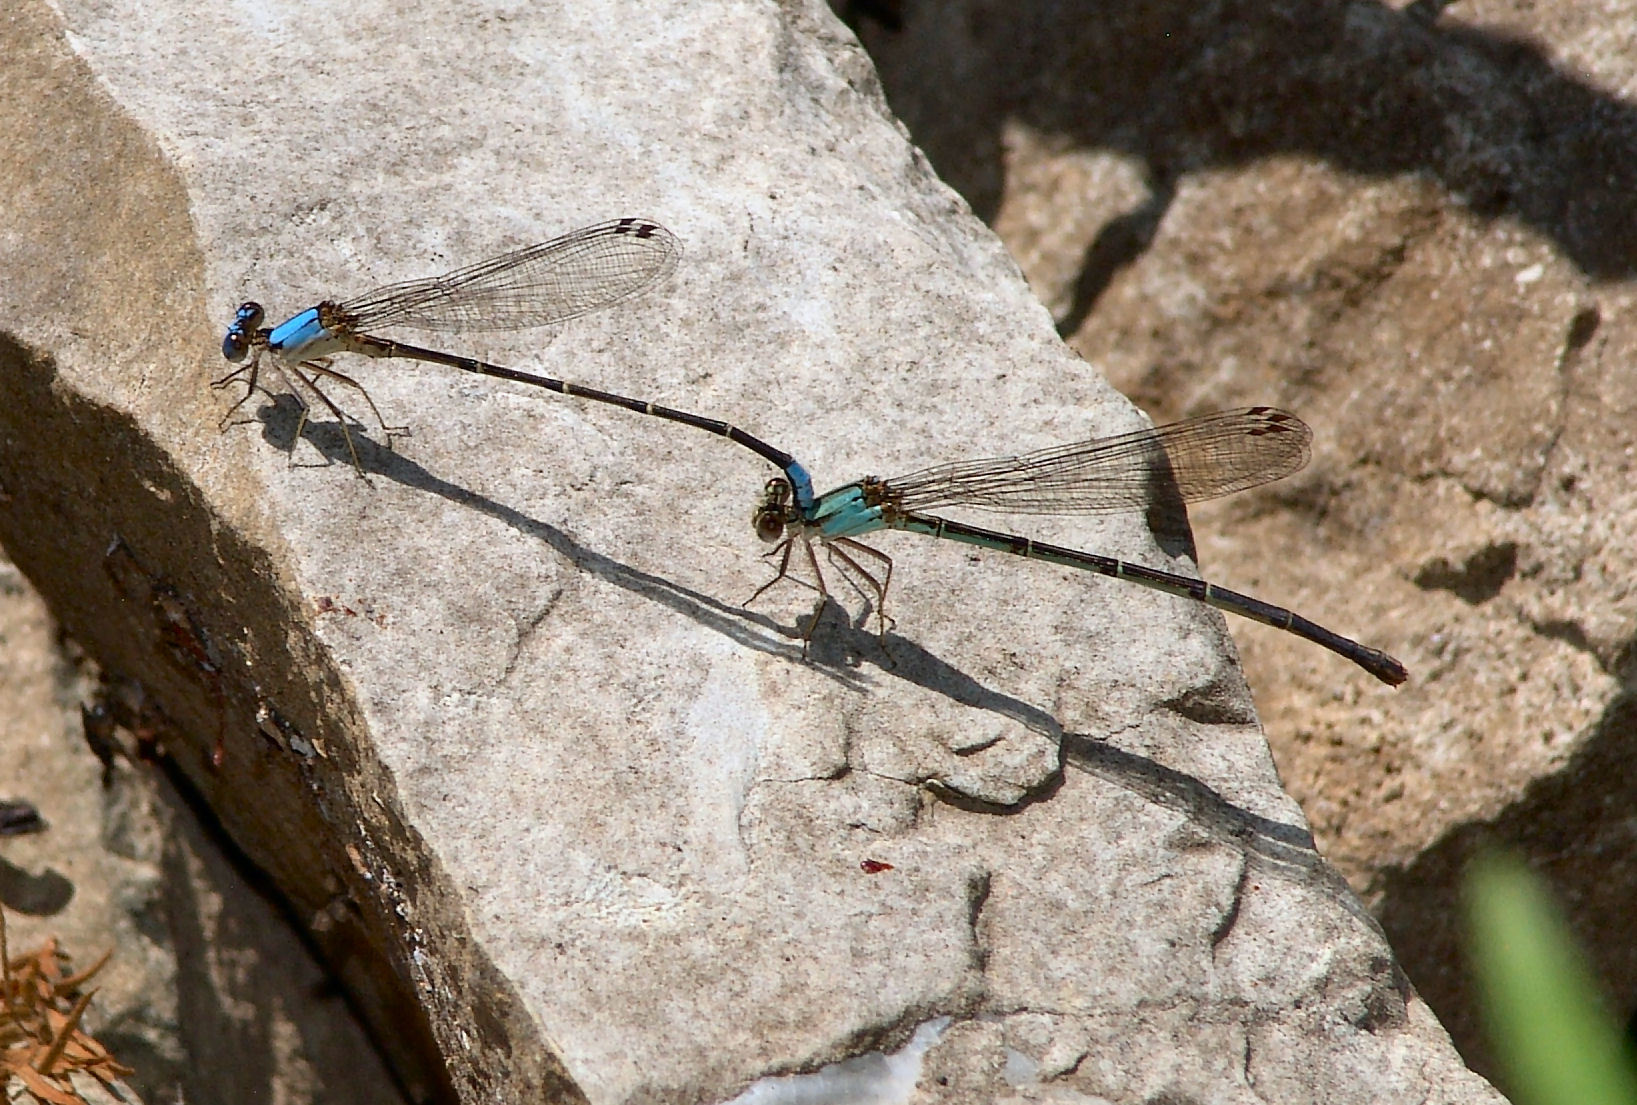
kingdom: Animalia
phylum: Arthropoda
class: Insecta
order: Odonata
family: Coenagrionidae
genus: Argia
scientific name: Argia apicalis
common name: Blue-fronted dancer
